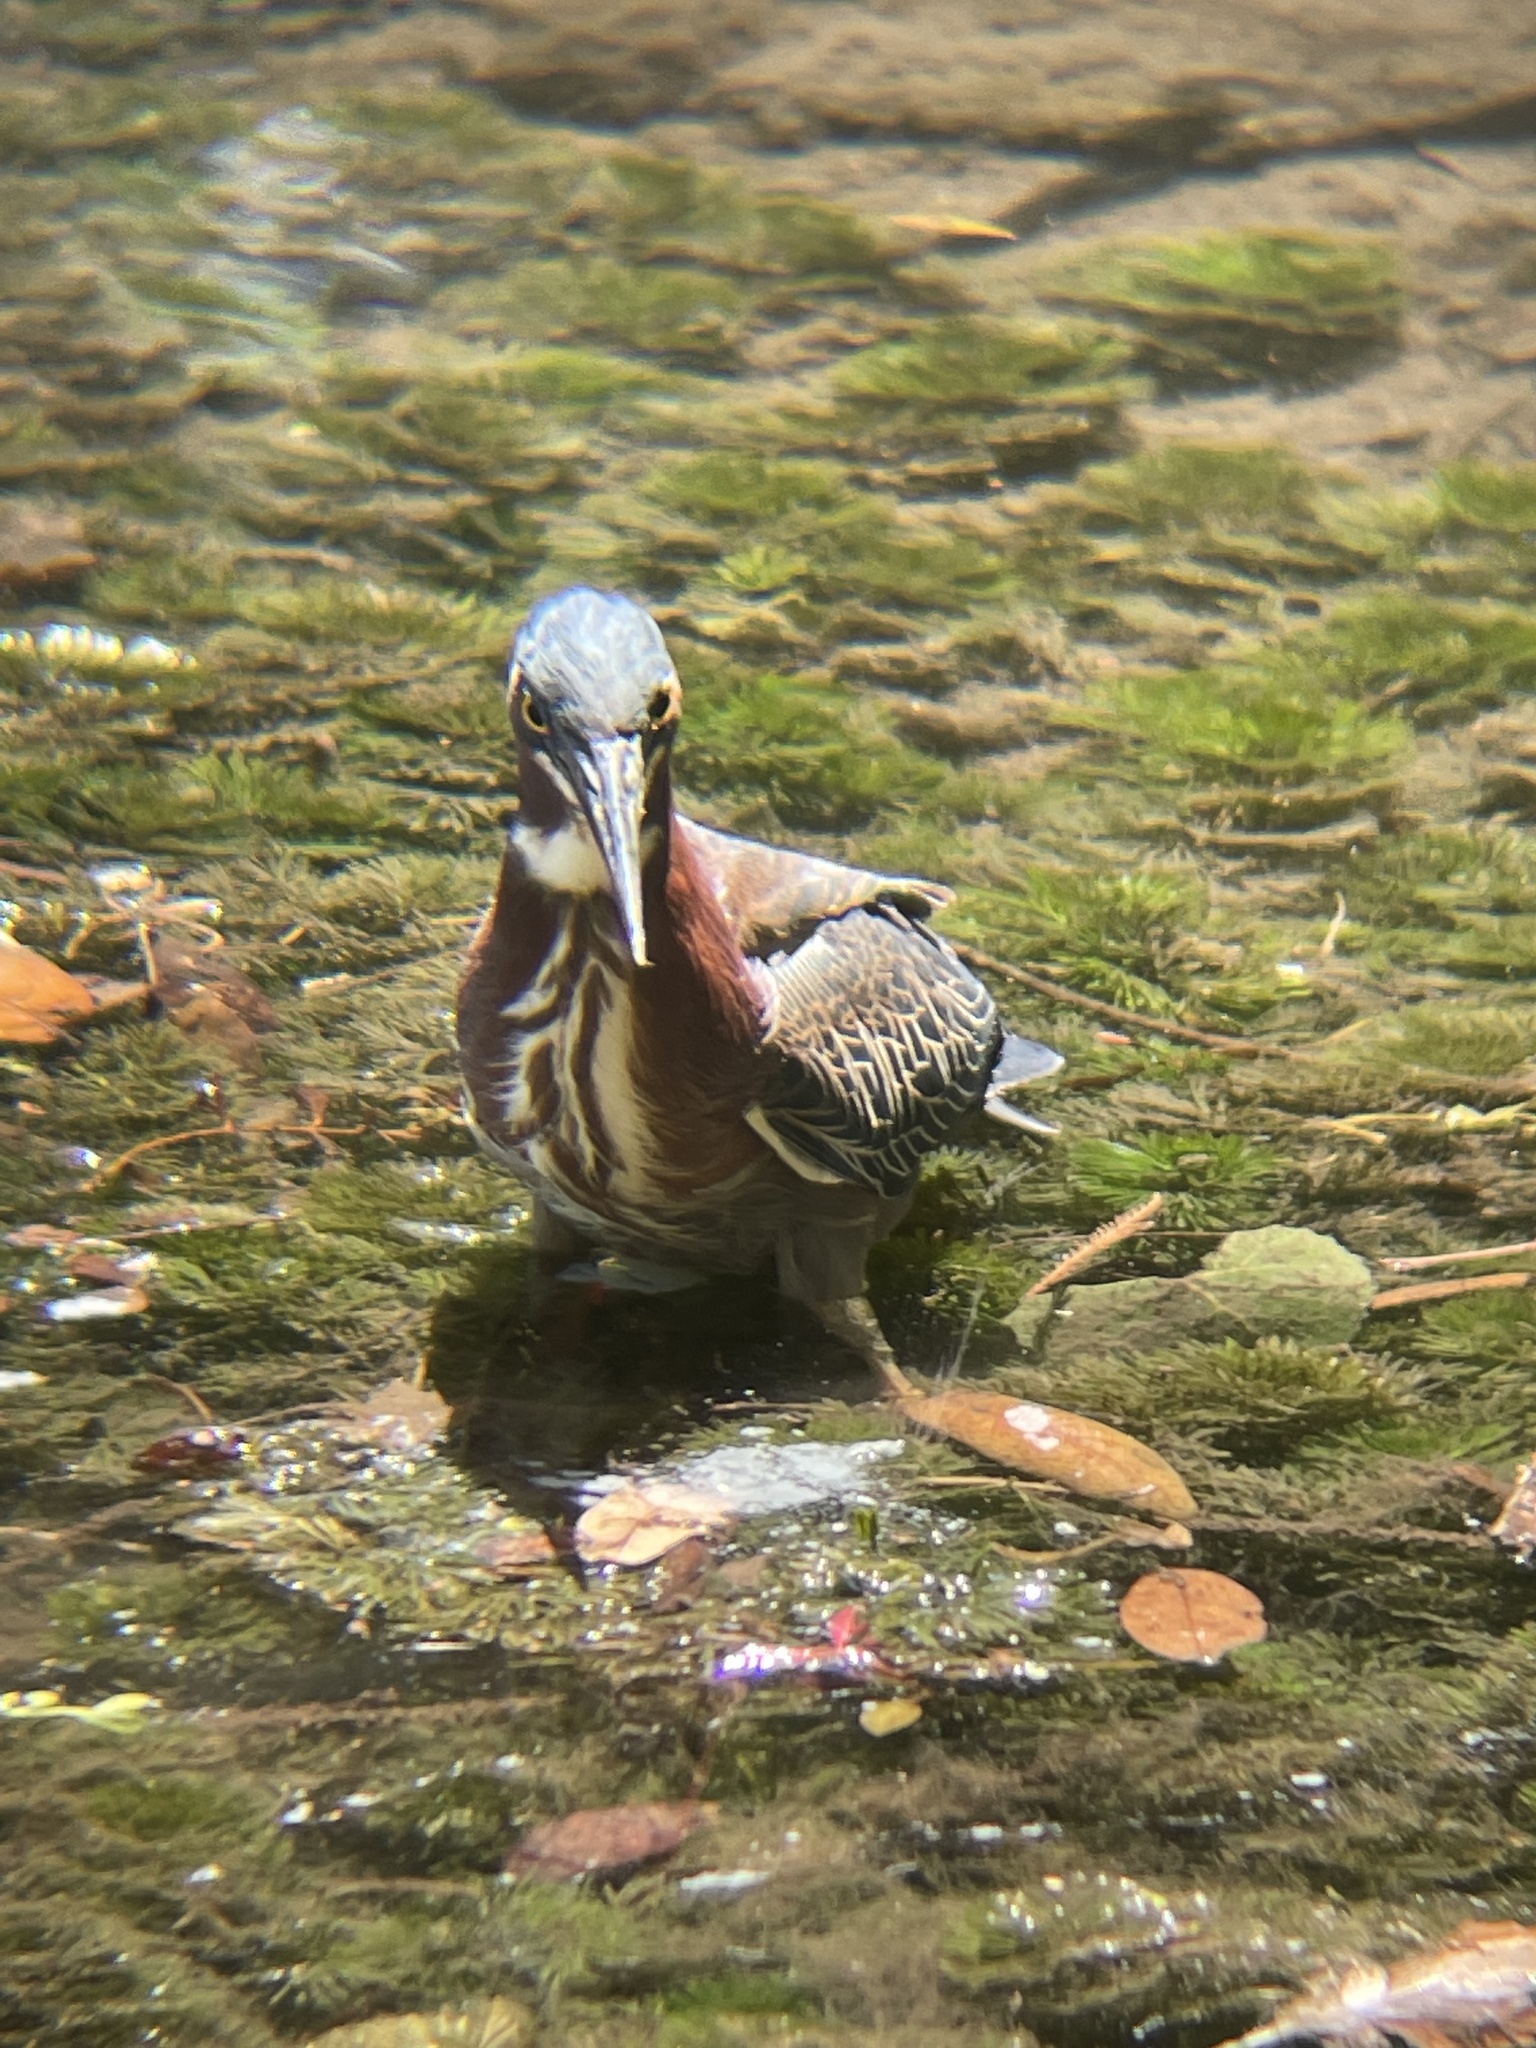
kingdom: Animalia
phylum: Chordata
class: Aves
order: Pelecaniformes
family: Ardeidae
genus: Butorides
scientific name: Butorides virescens
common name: Green heron
